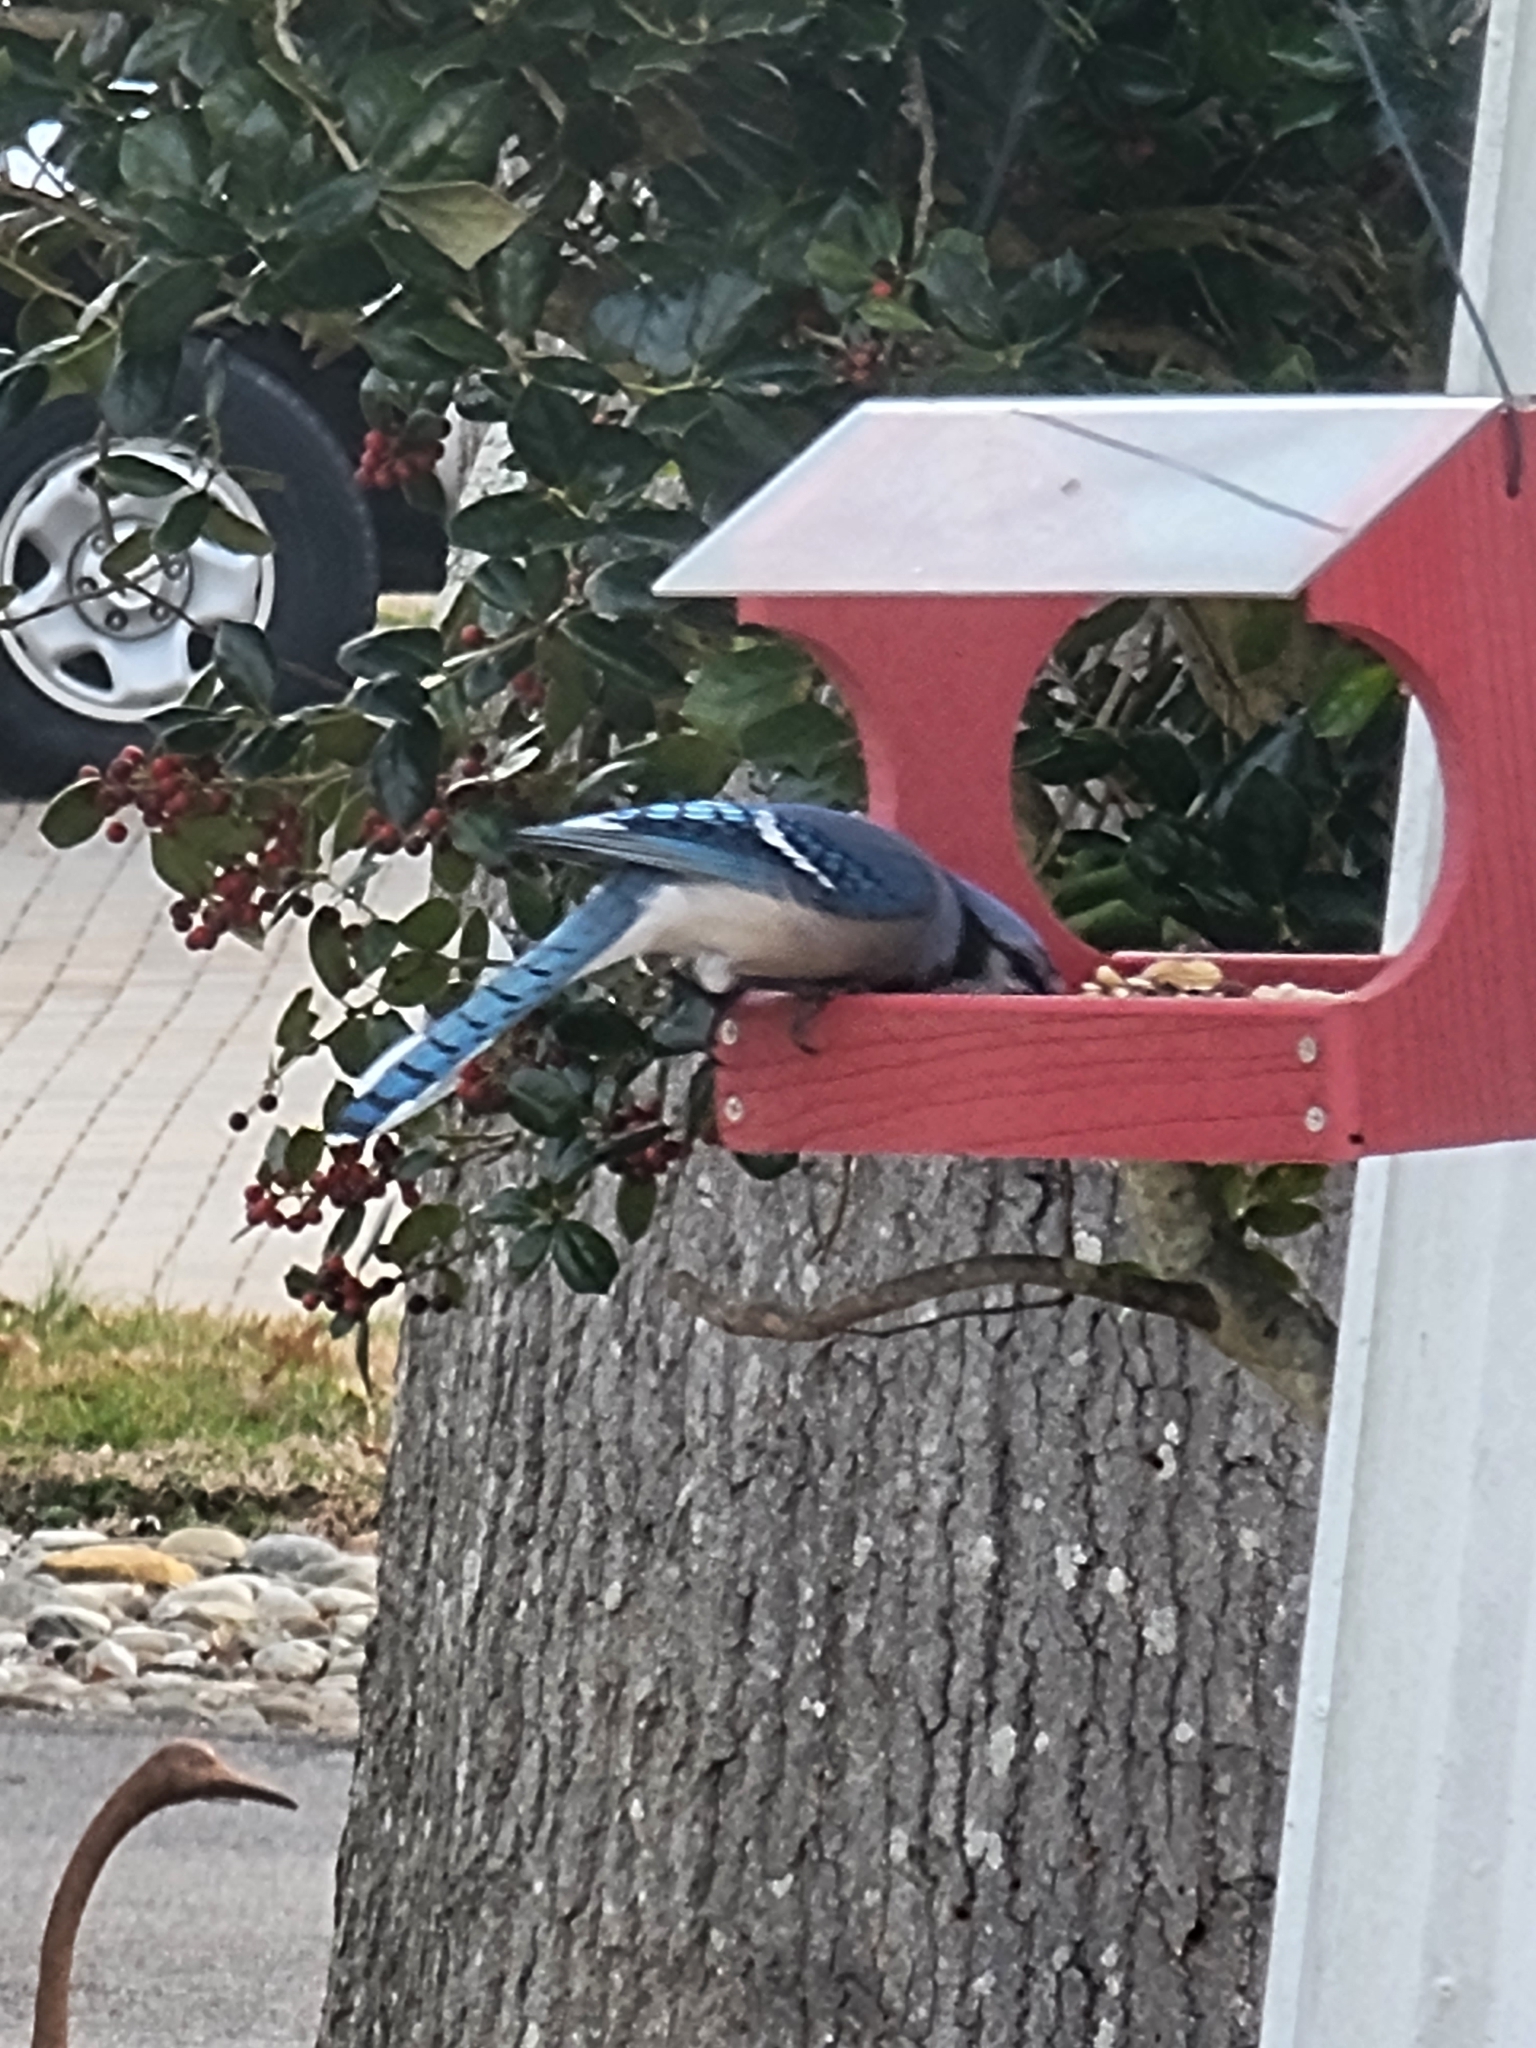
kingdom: Animalia
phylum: Chordata
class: Aves
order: Passeriformes
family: Corvidae
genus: Cyanocitta
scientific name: Cyanocitta cristata
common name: Blue jay
